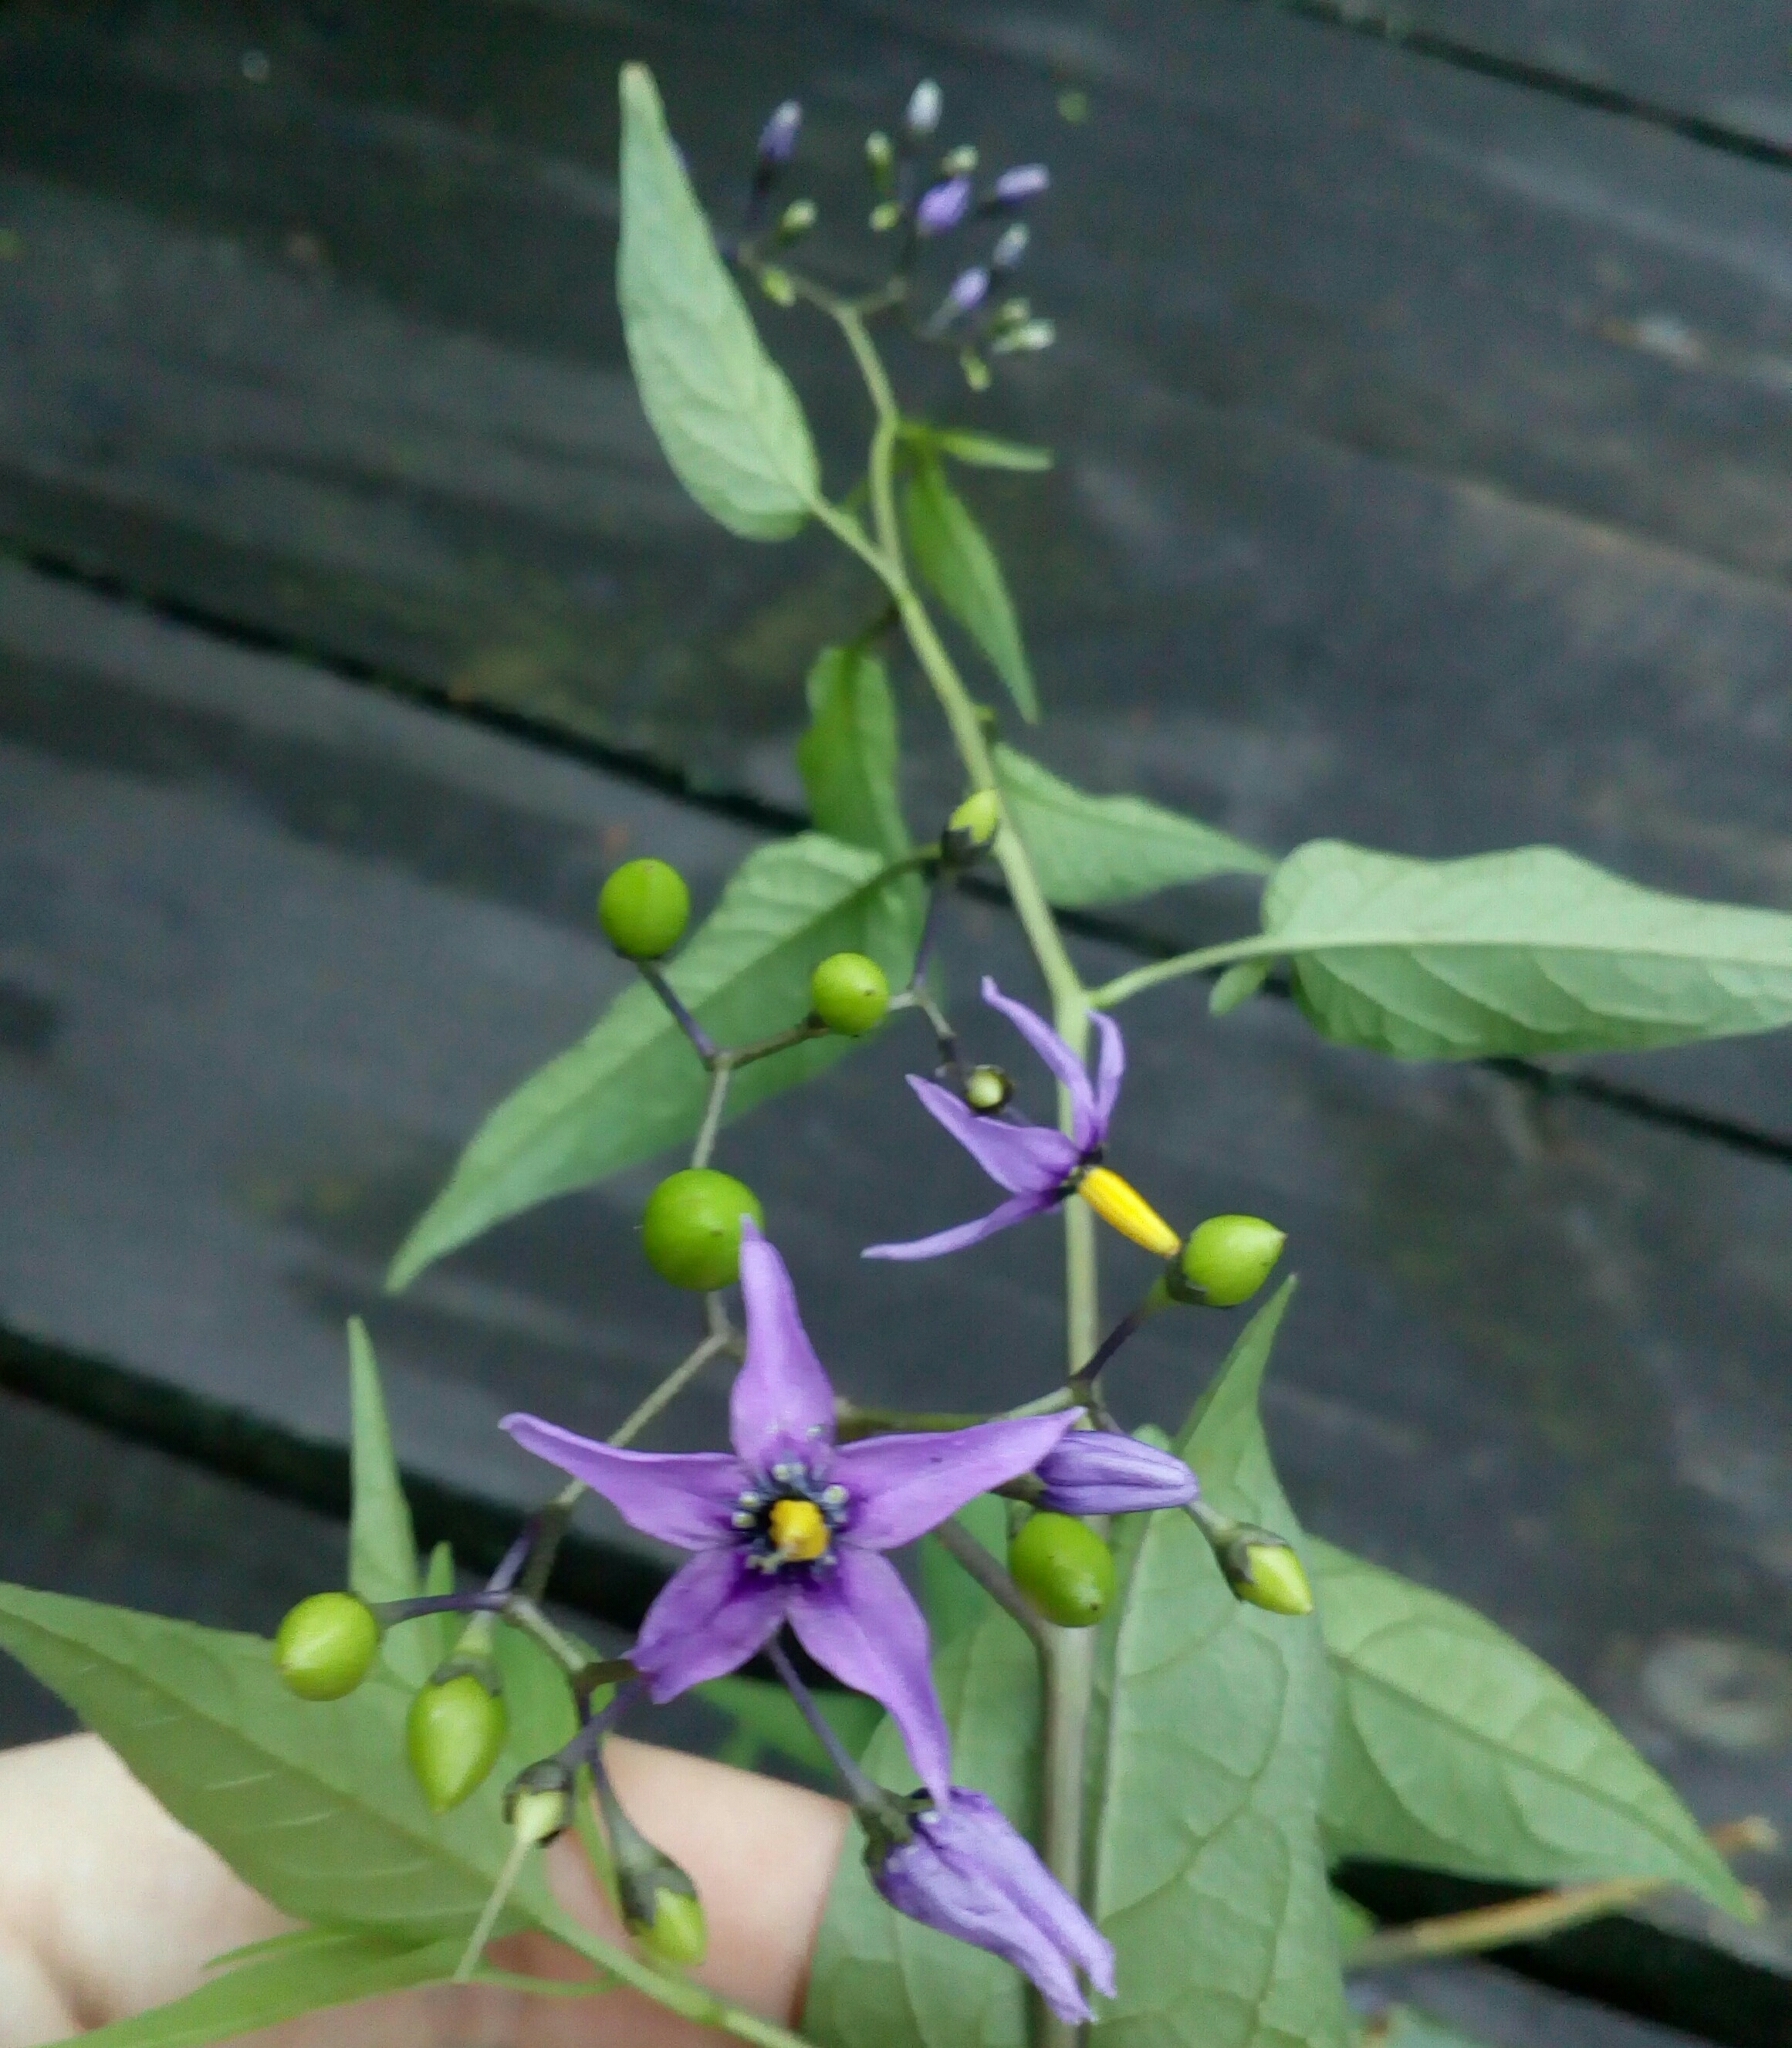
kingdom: Plantae
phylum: Tracheophyta
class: Magnoliopsida
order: Solanales
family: Solanaceae
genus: Solanum
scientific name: Solanum dulcamara
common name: Climbing nightshade
